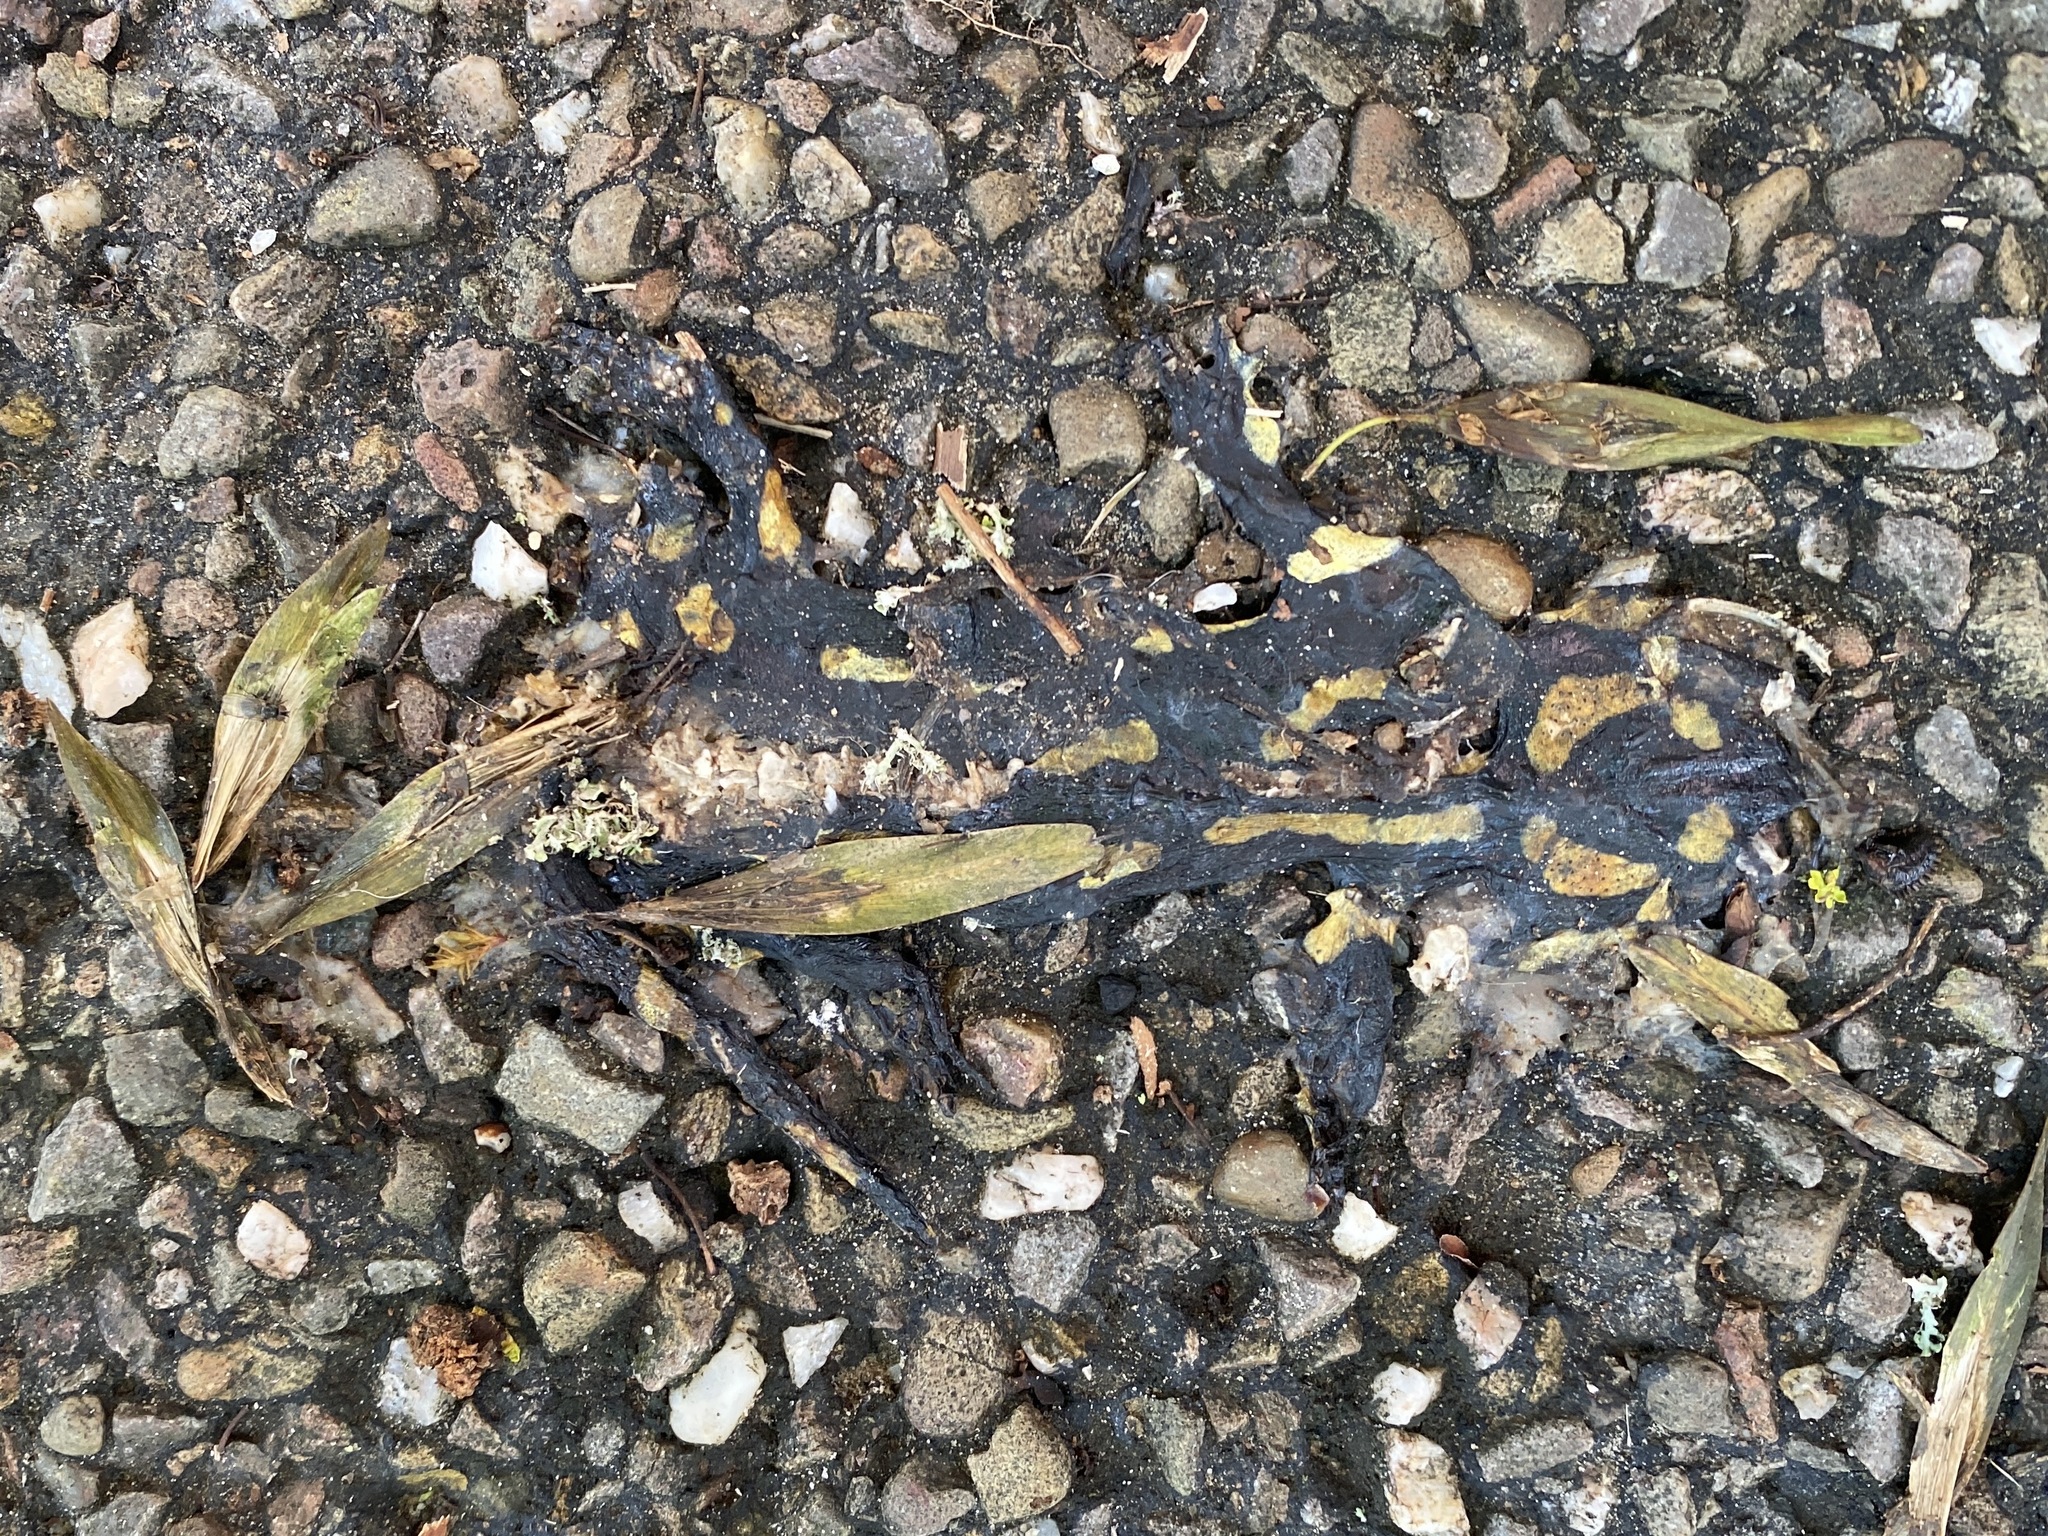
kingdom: Animalia
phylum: Chordata
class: Amphibia
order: Caudata
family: Salamandridae
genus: Salamandra
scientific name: Salamandra salamandra
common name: Fire salamander
